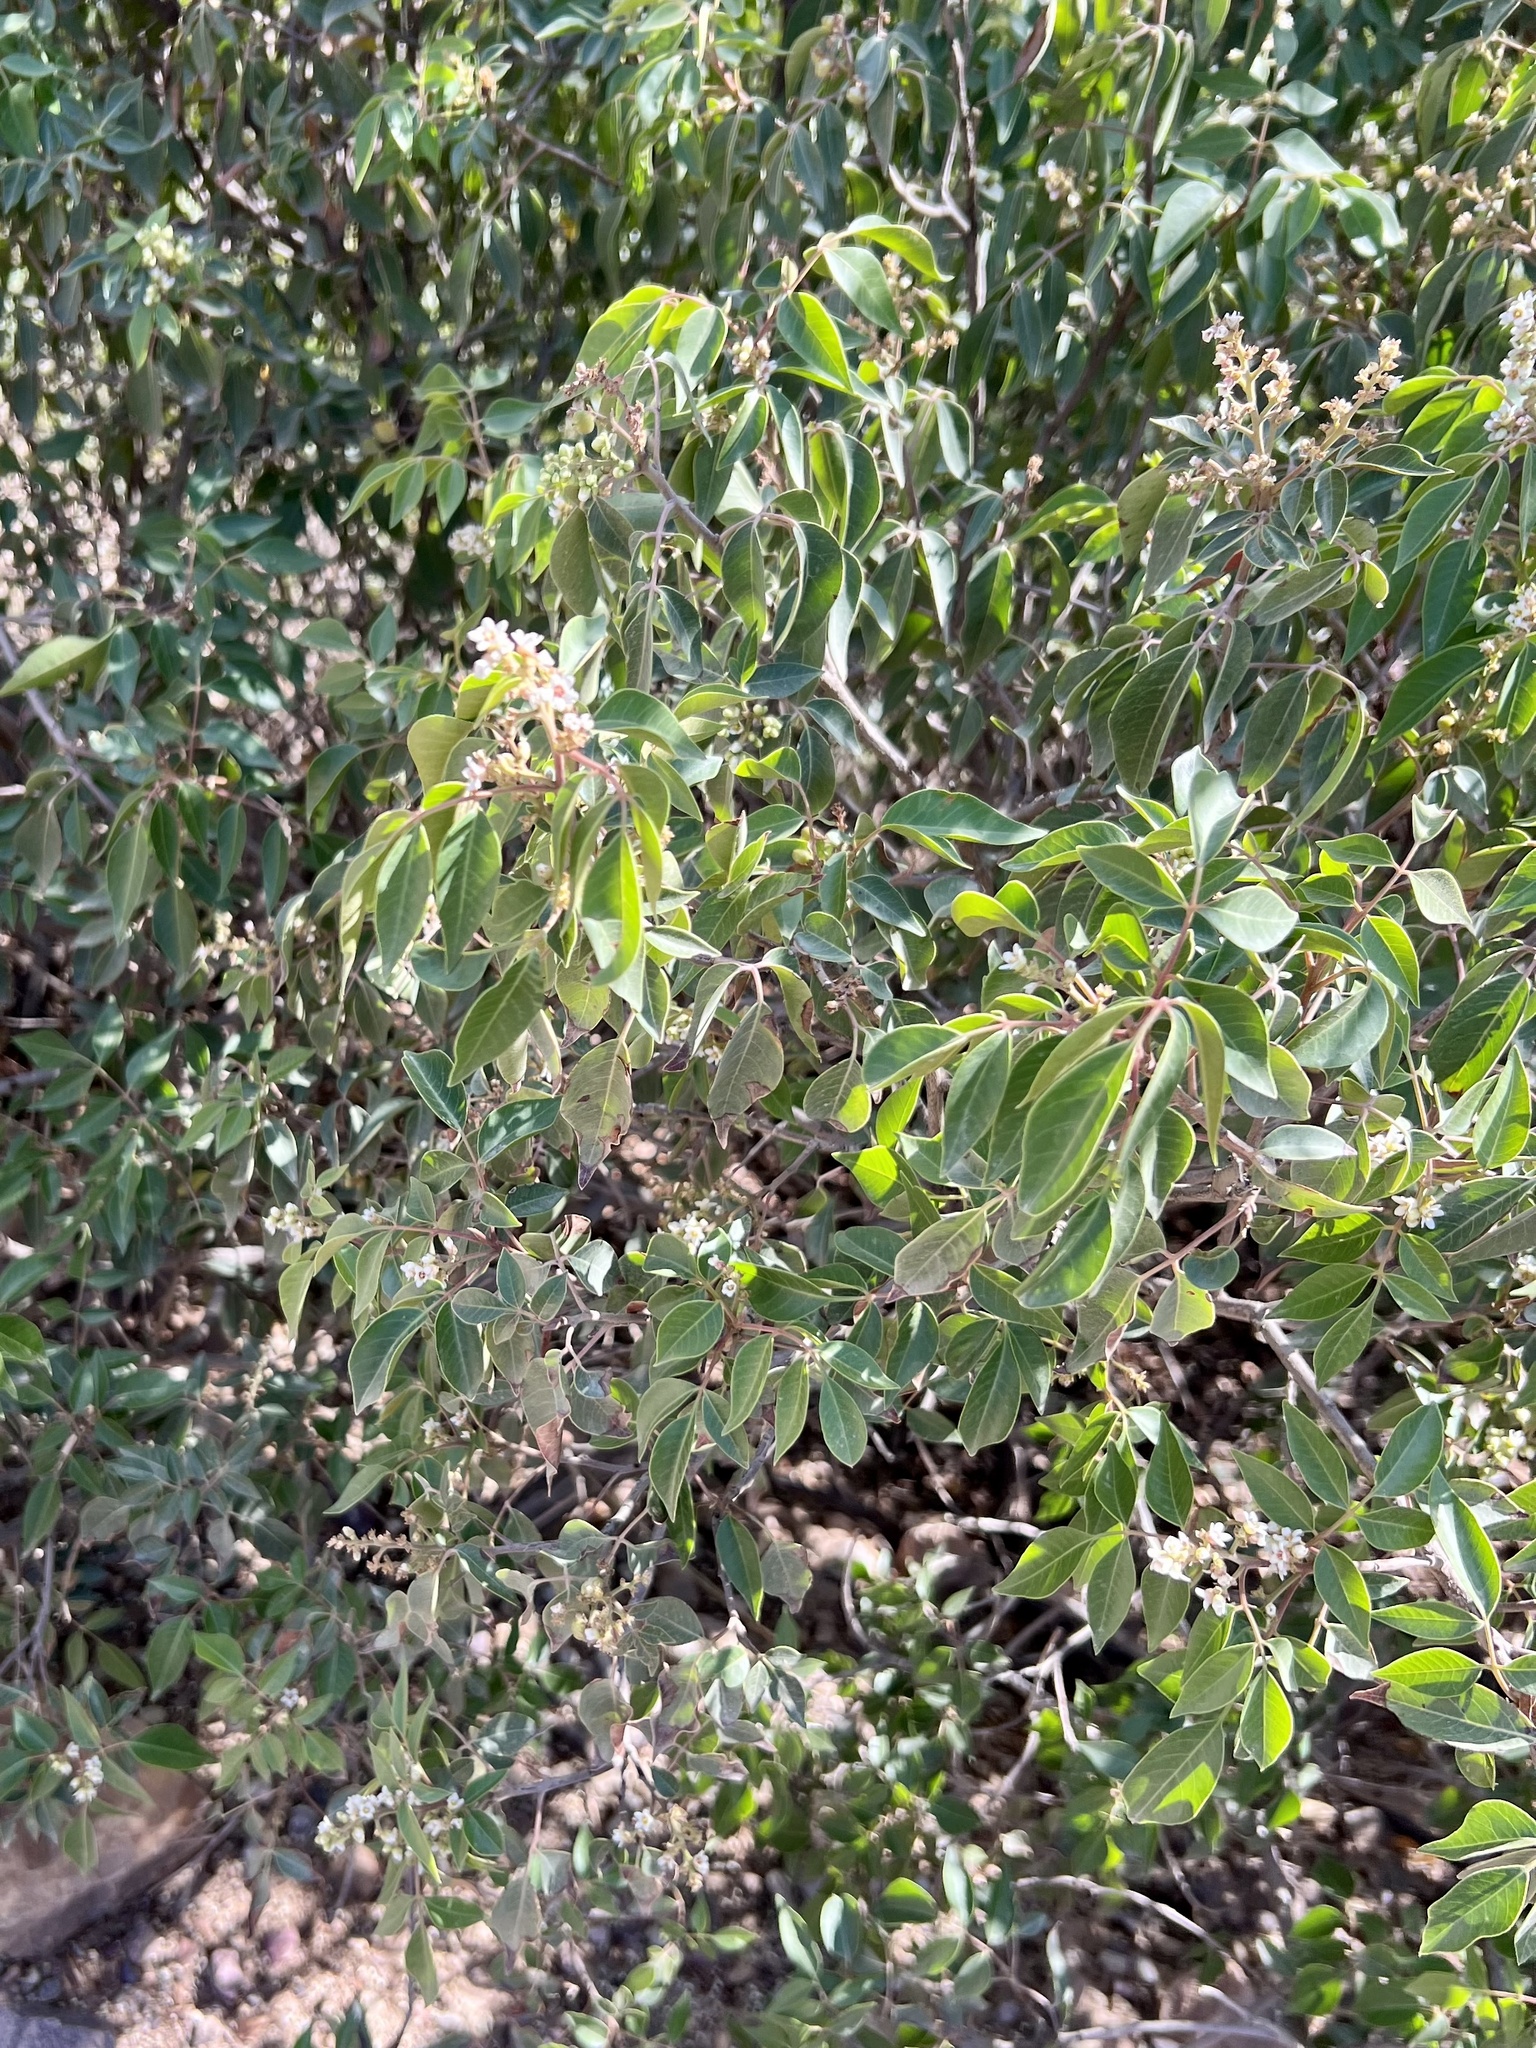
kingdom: Plantae
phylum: Tracheophyta
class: Magnoliopsida
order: Sapindales
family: Anacardiaceae
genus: Rhus
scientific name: Rhus virens
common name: Evergreen sumac
